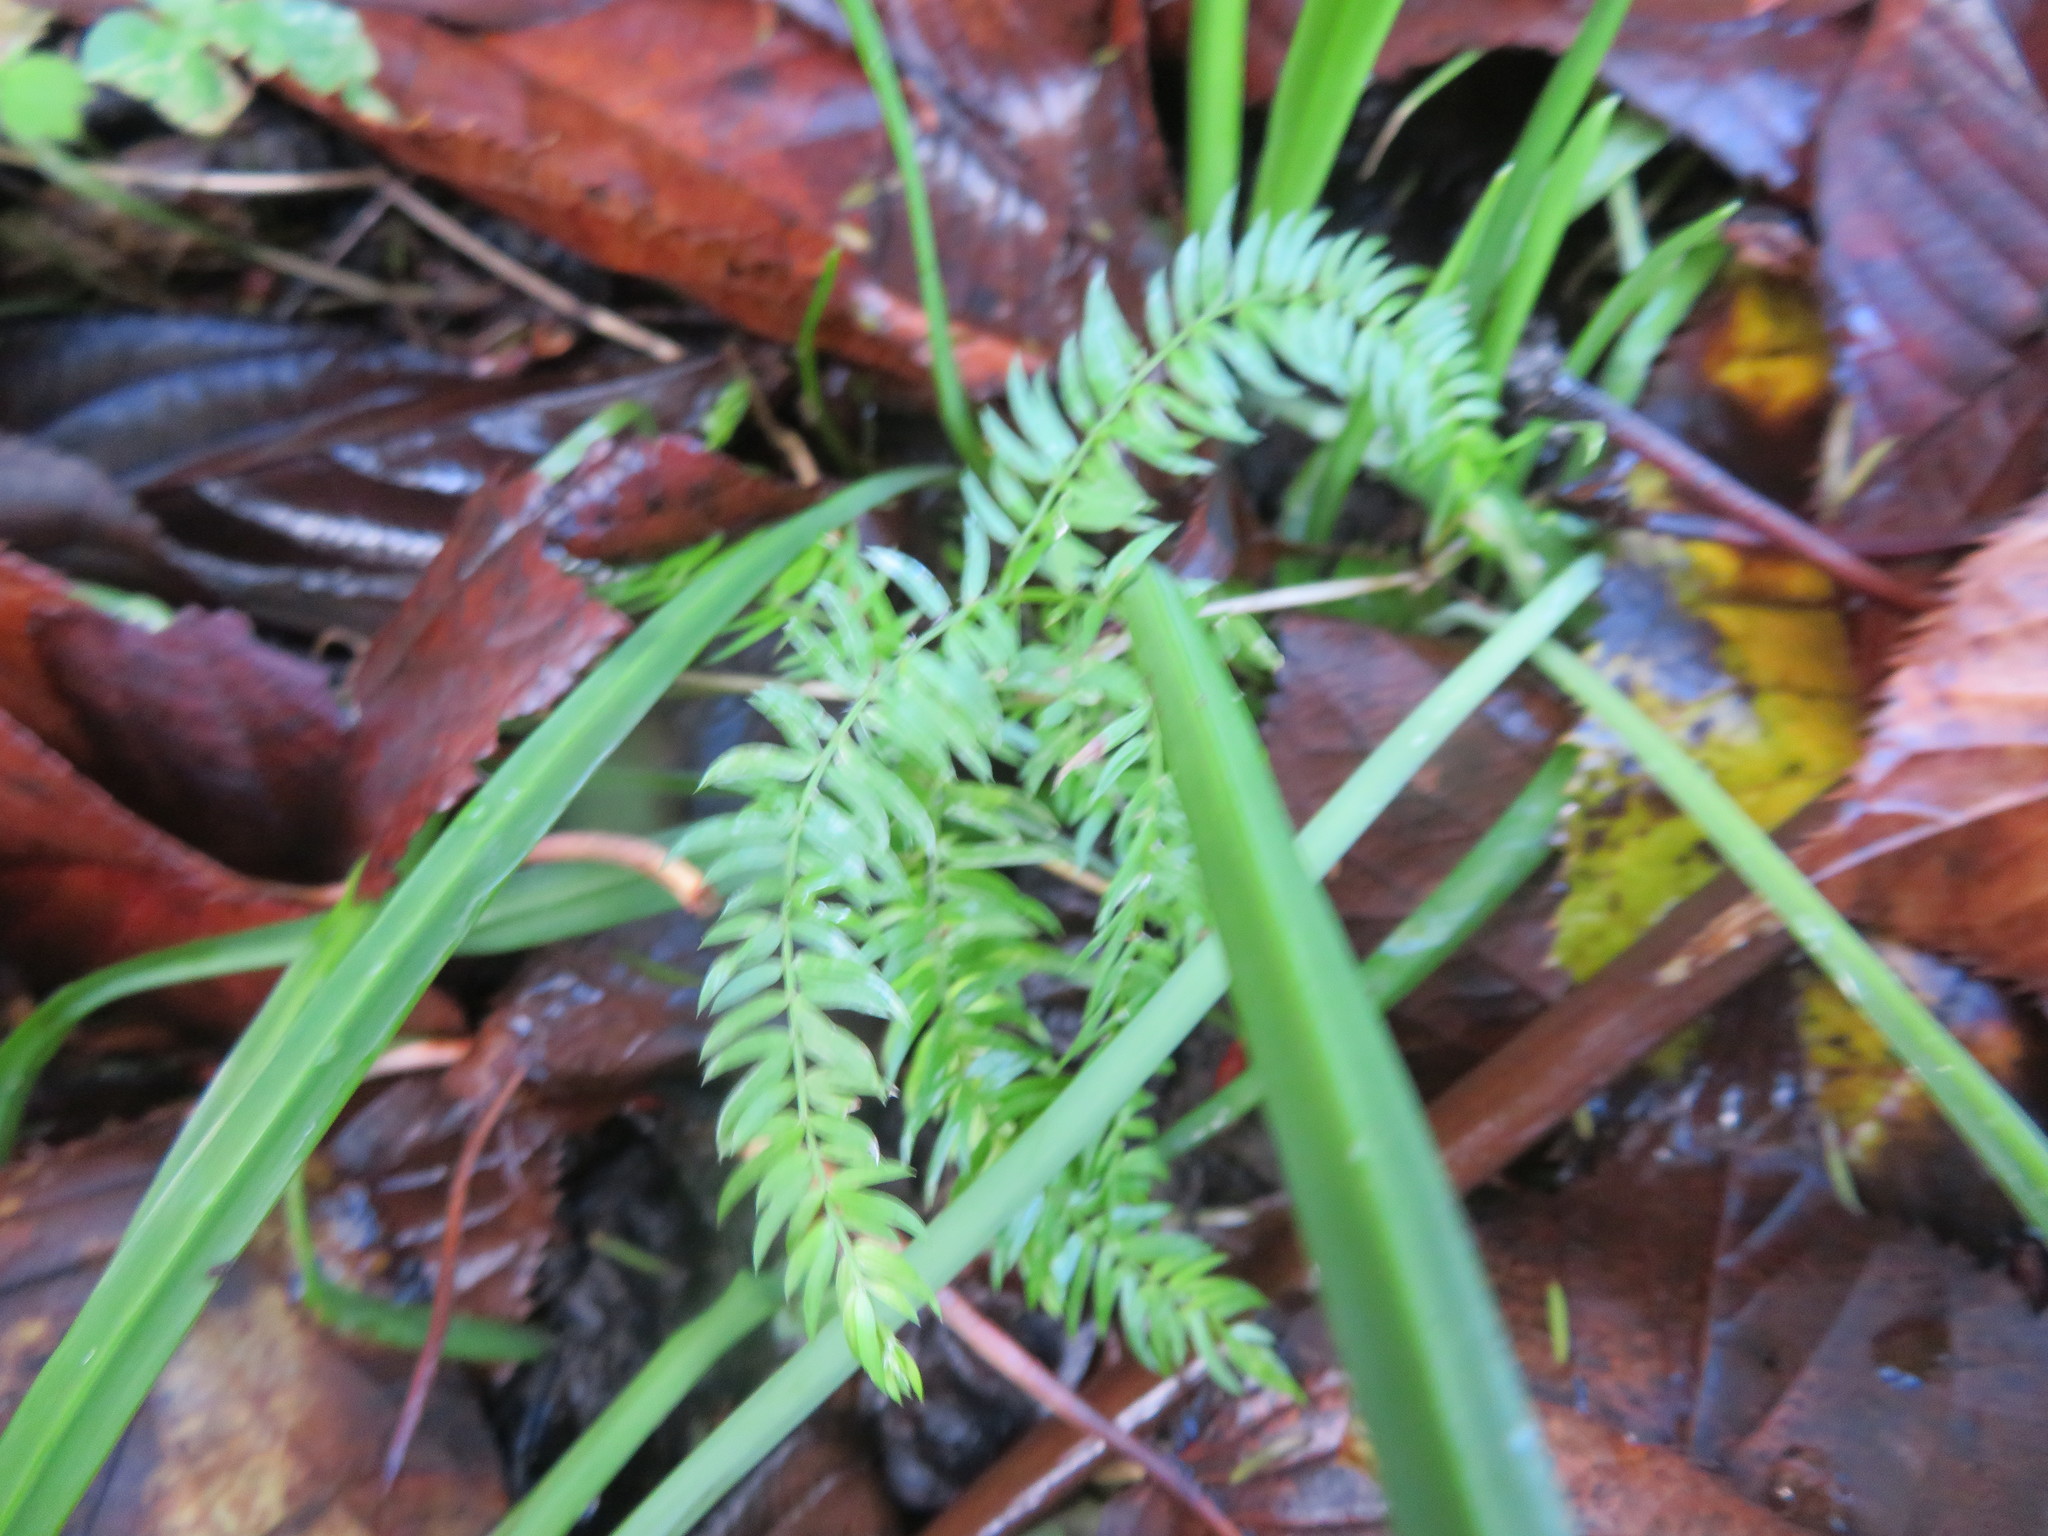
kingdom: Plantae
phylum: Tracheophyta
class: Liliopsida
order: Asparagales
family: Asparagaceae
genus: Asparagus
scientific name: Asparagus scandens
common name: Asparagus-fern
